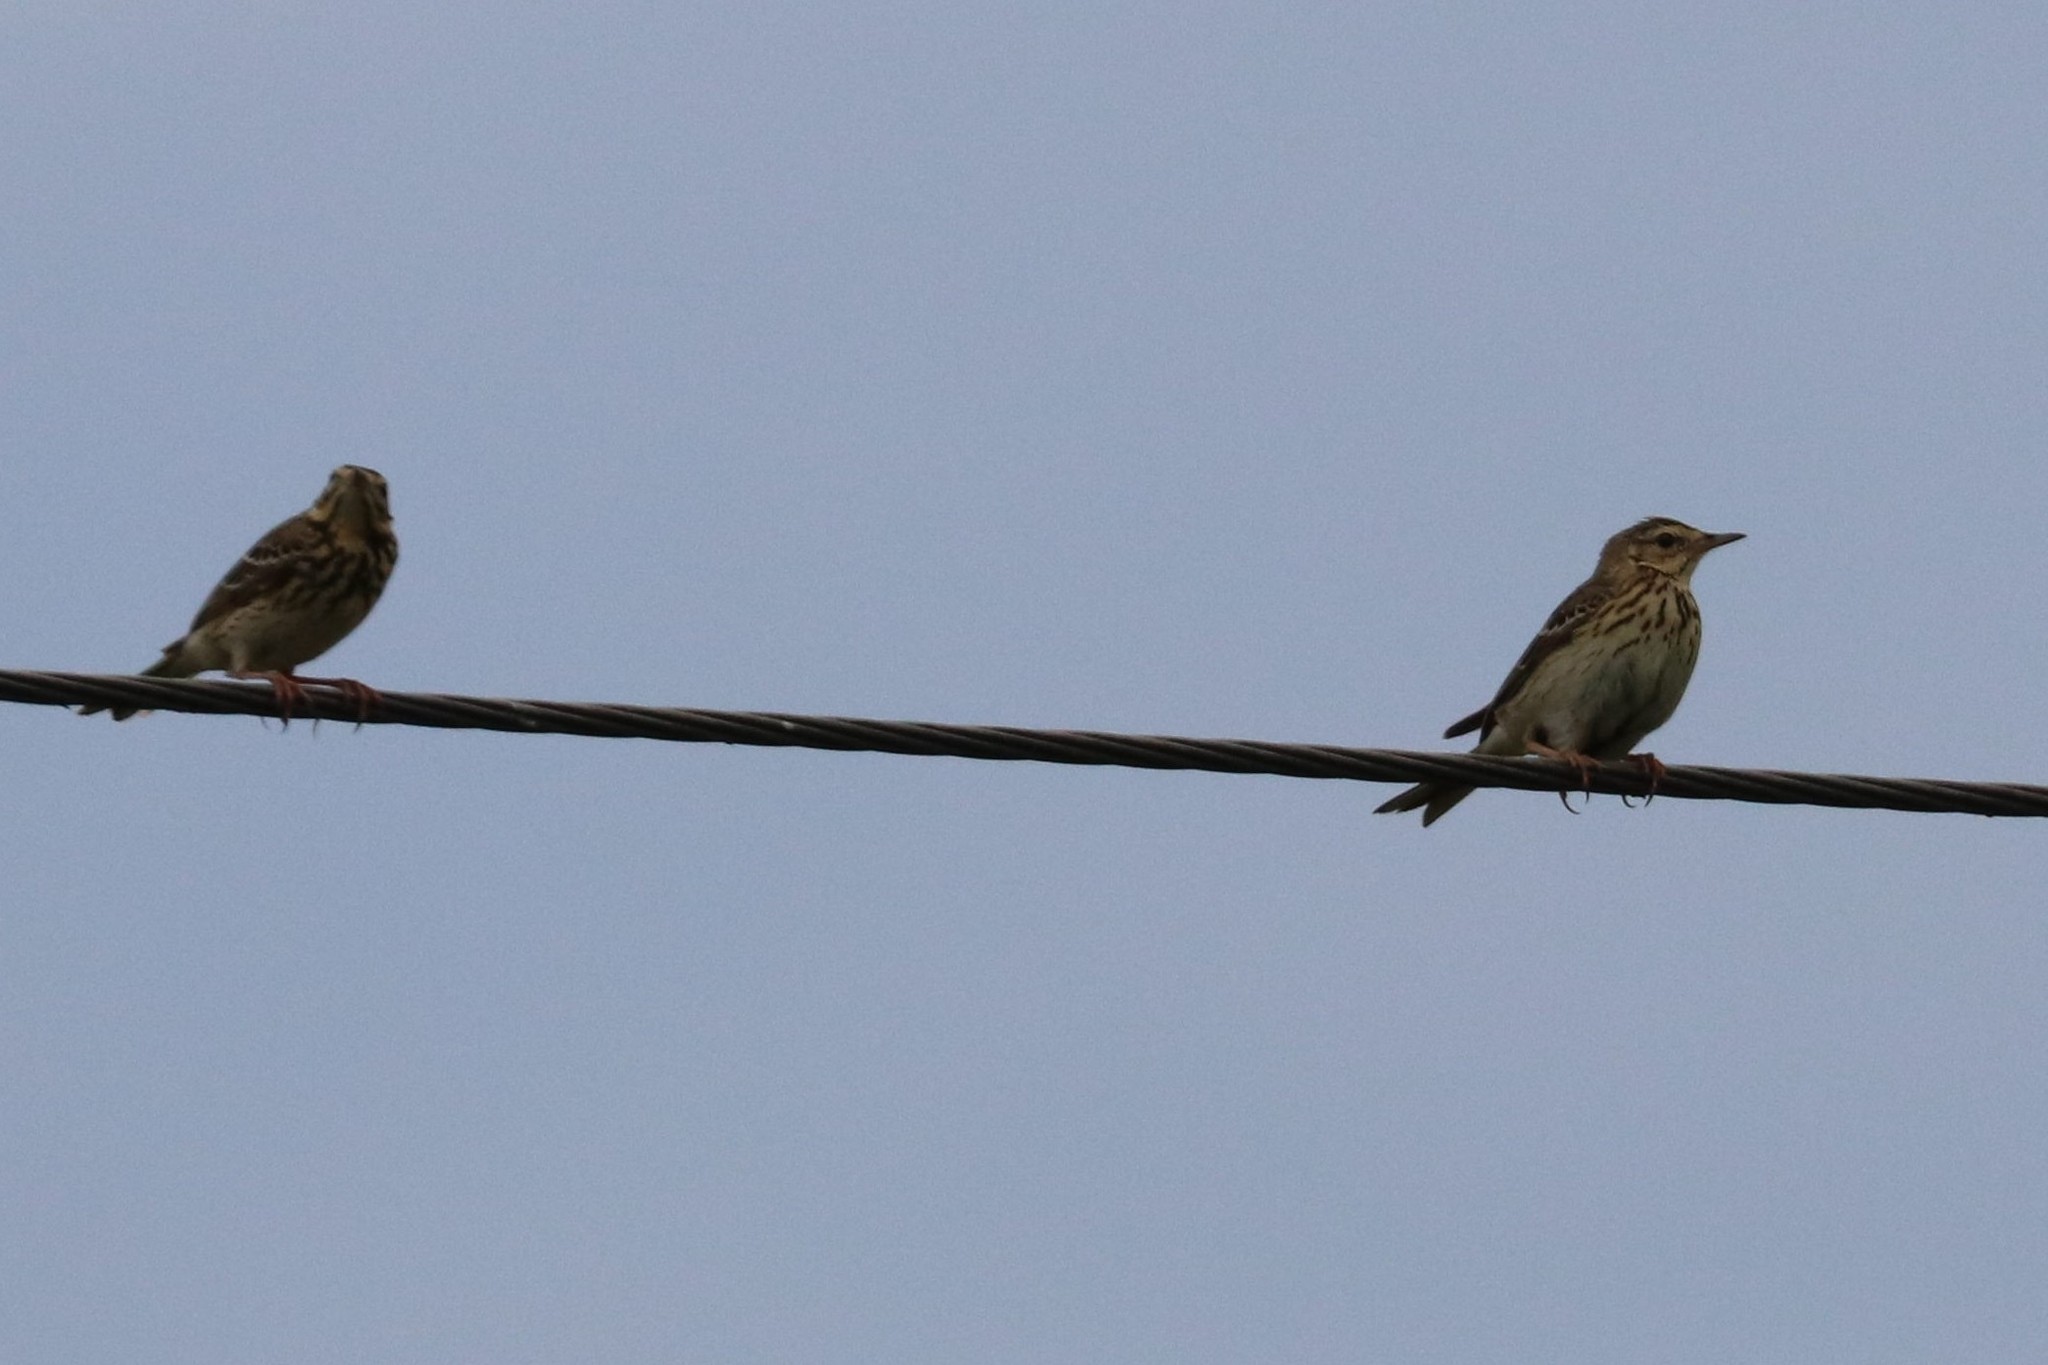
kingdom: Animalia
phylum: Chordata
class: Aves
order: Passeriformes
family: Motacillidae
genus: Anthus
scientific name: Anthus trivialis
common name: Tree pipit
